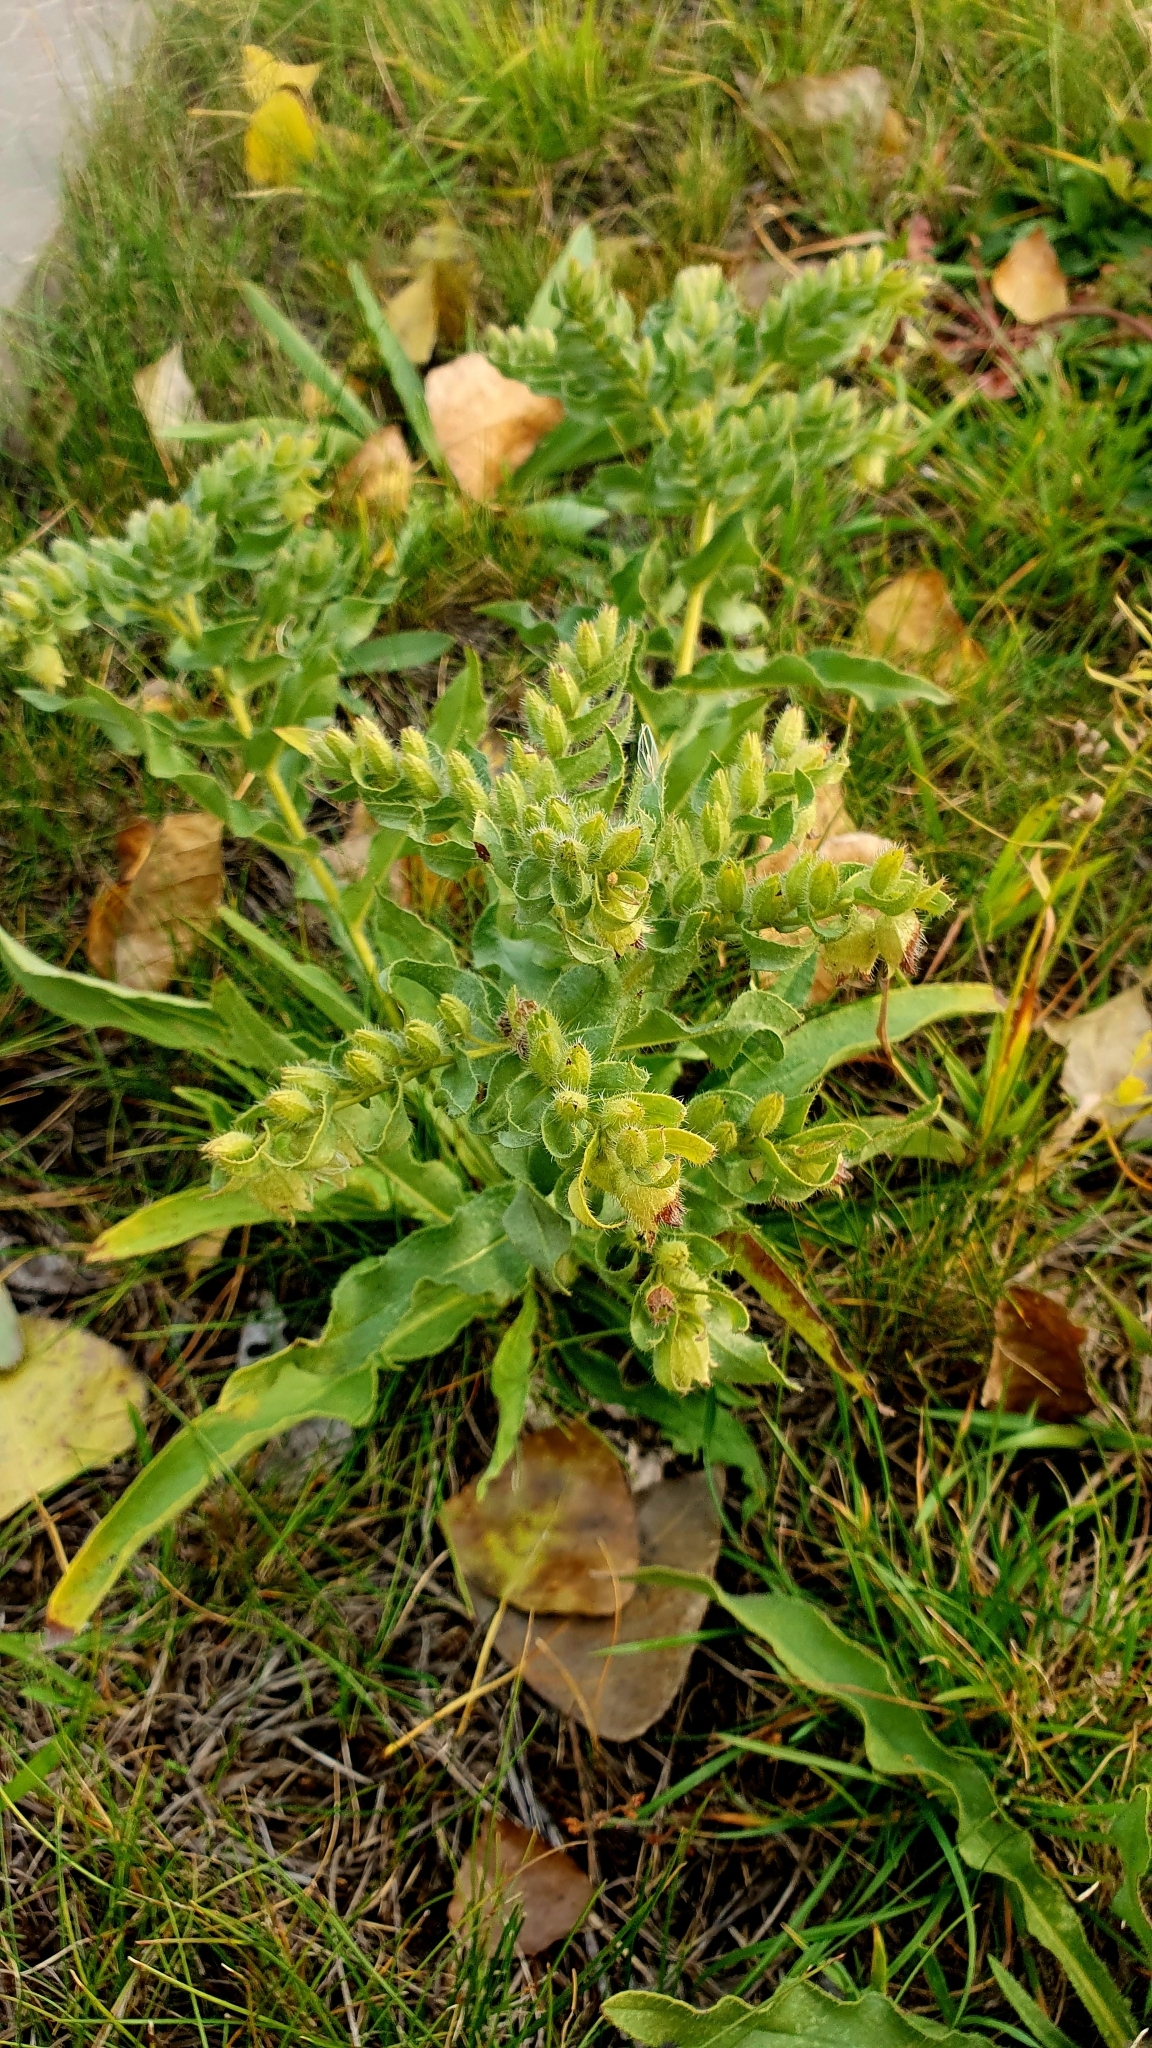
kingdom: Plantae
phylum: Tracheophyta
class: Magnoliopsida
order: Boraginales
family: Boraginaceae
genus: Nonea
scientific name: Nonea pulla
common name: Brown nonea
